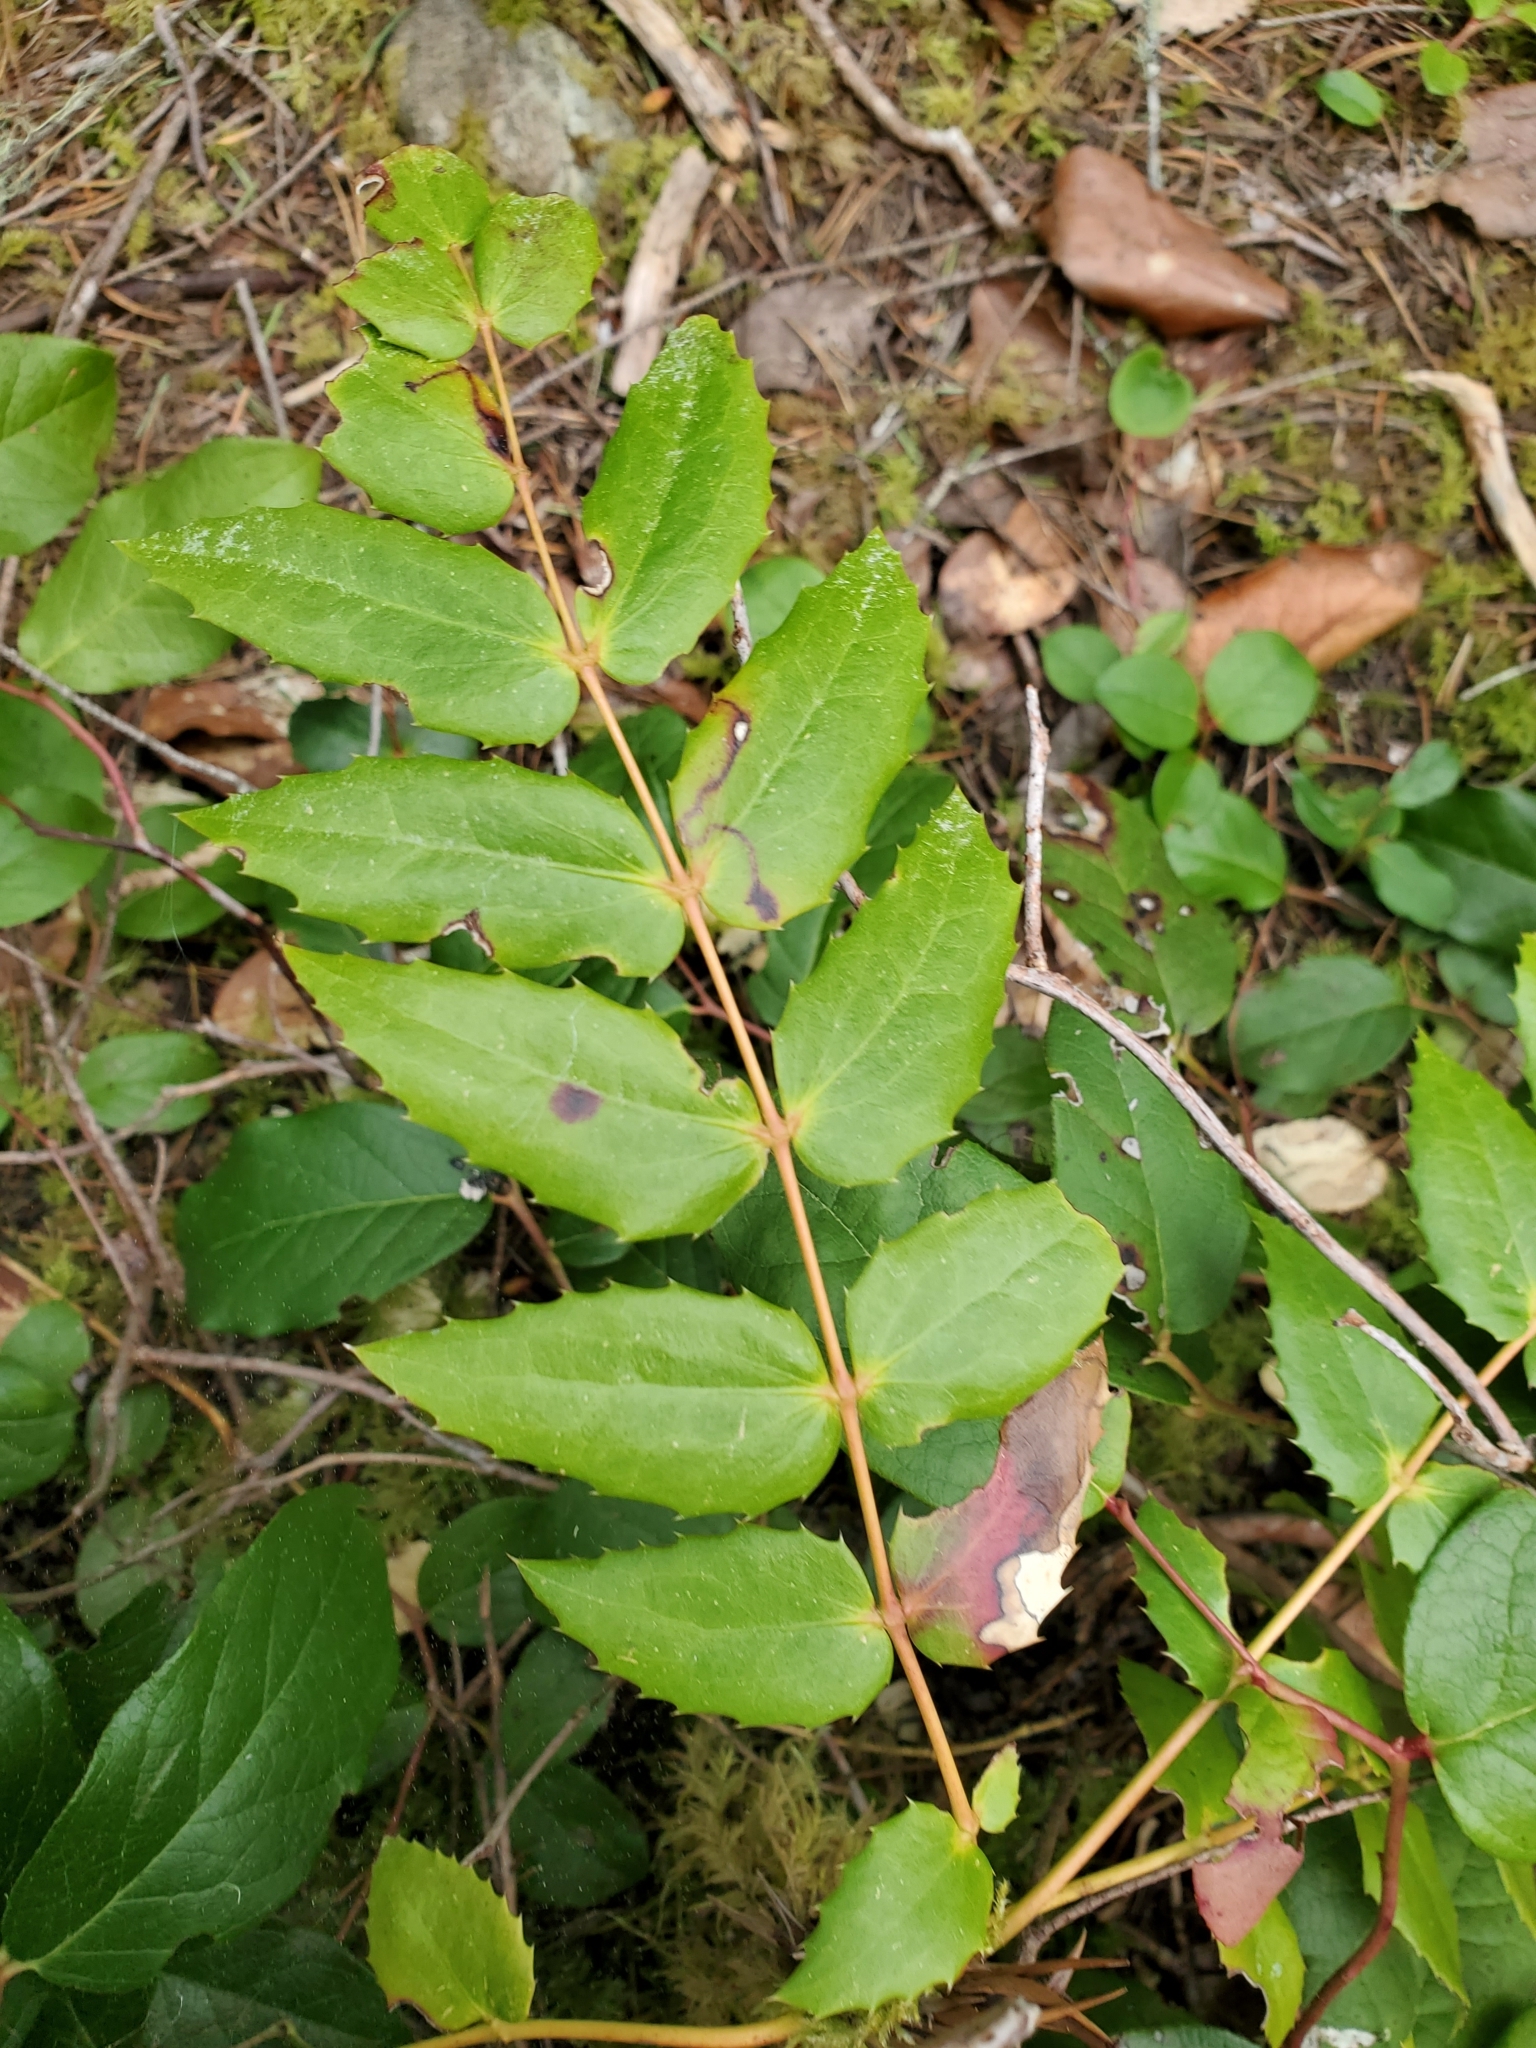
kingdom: Plantae
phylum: Tracheophyta
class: Magnoliopsida
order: Ranunculales
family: Berberidaceae
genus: Mahonia
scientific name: Mahonia nervosa
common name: Cascade oregon-grape
